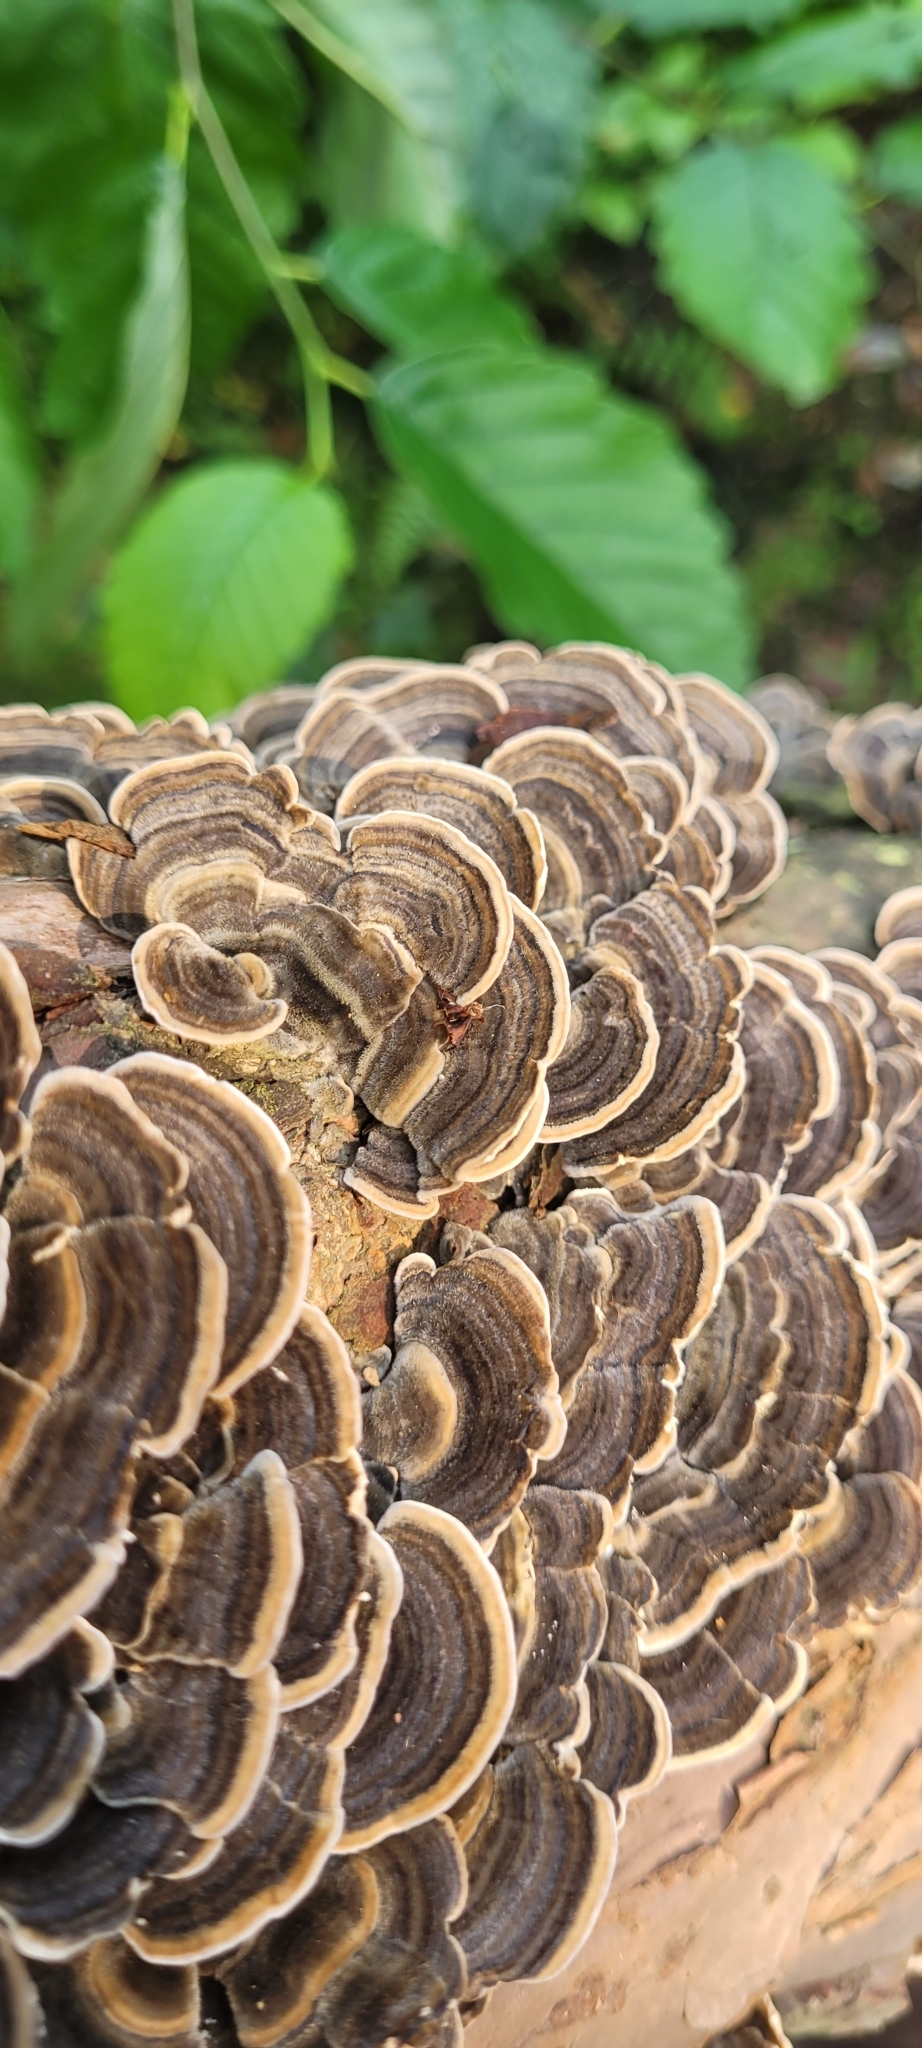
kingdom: Fungi
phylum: Basidiomycota
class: Agaricomycetes
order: Polyporales
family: Polyporaceae
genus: Trametes
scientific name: Trametes versicolor
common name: Turkeytail
